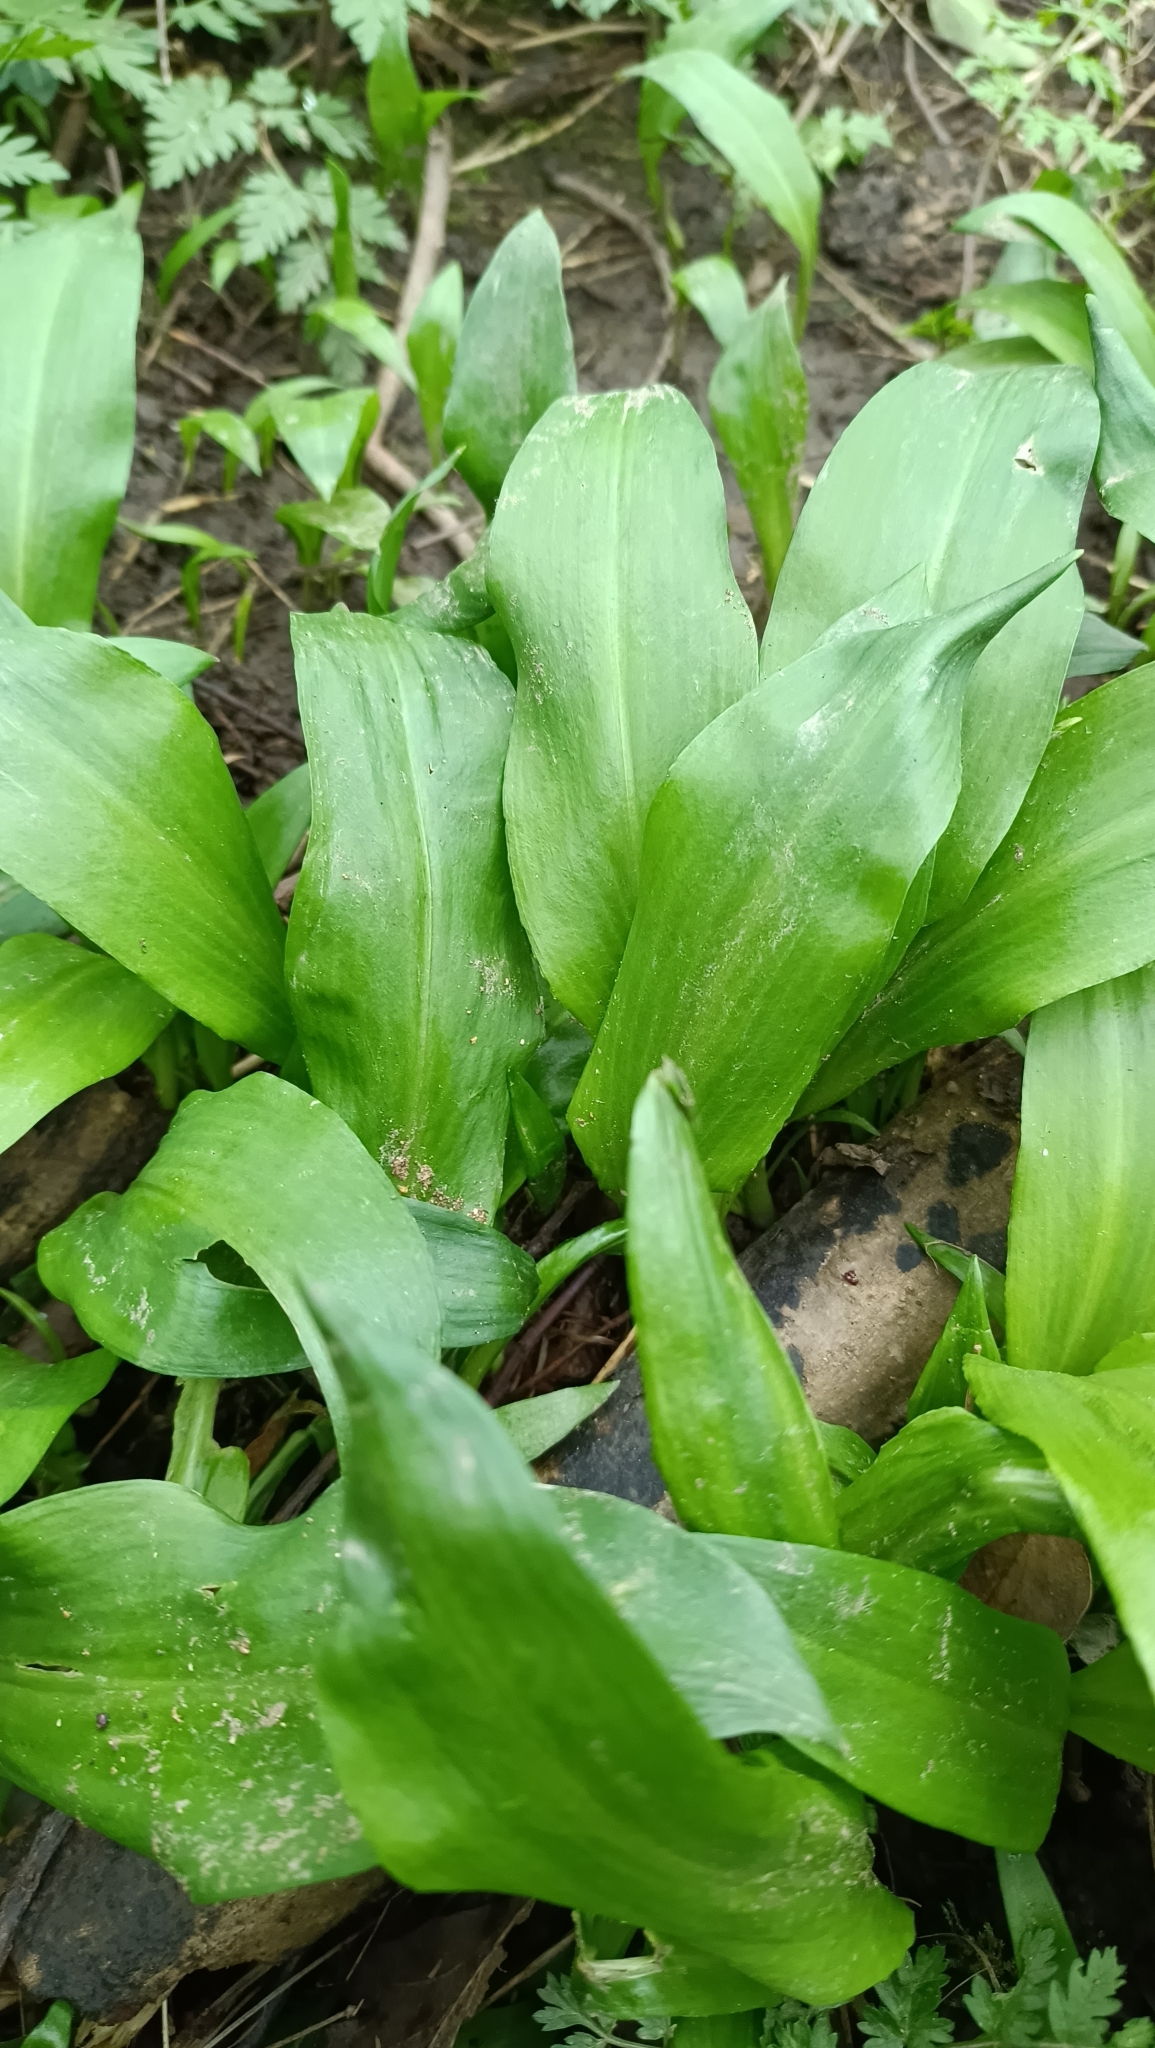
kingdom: Plantae
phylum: Tracheophyta
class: Liliopsida
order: Asparagales
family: Amaryllidaceae
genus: Allium
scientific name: Allium ursinum
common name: Ramsons
